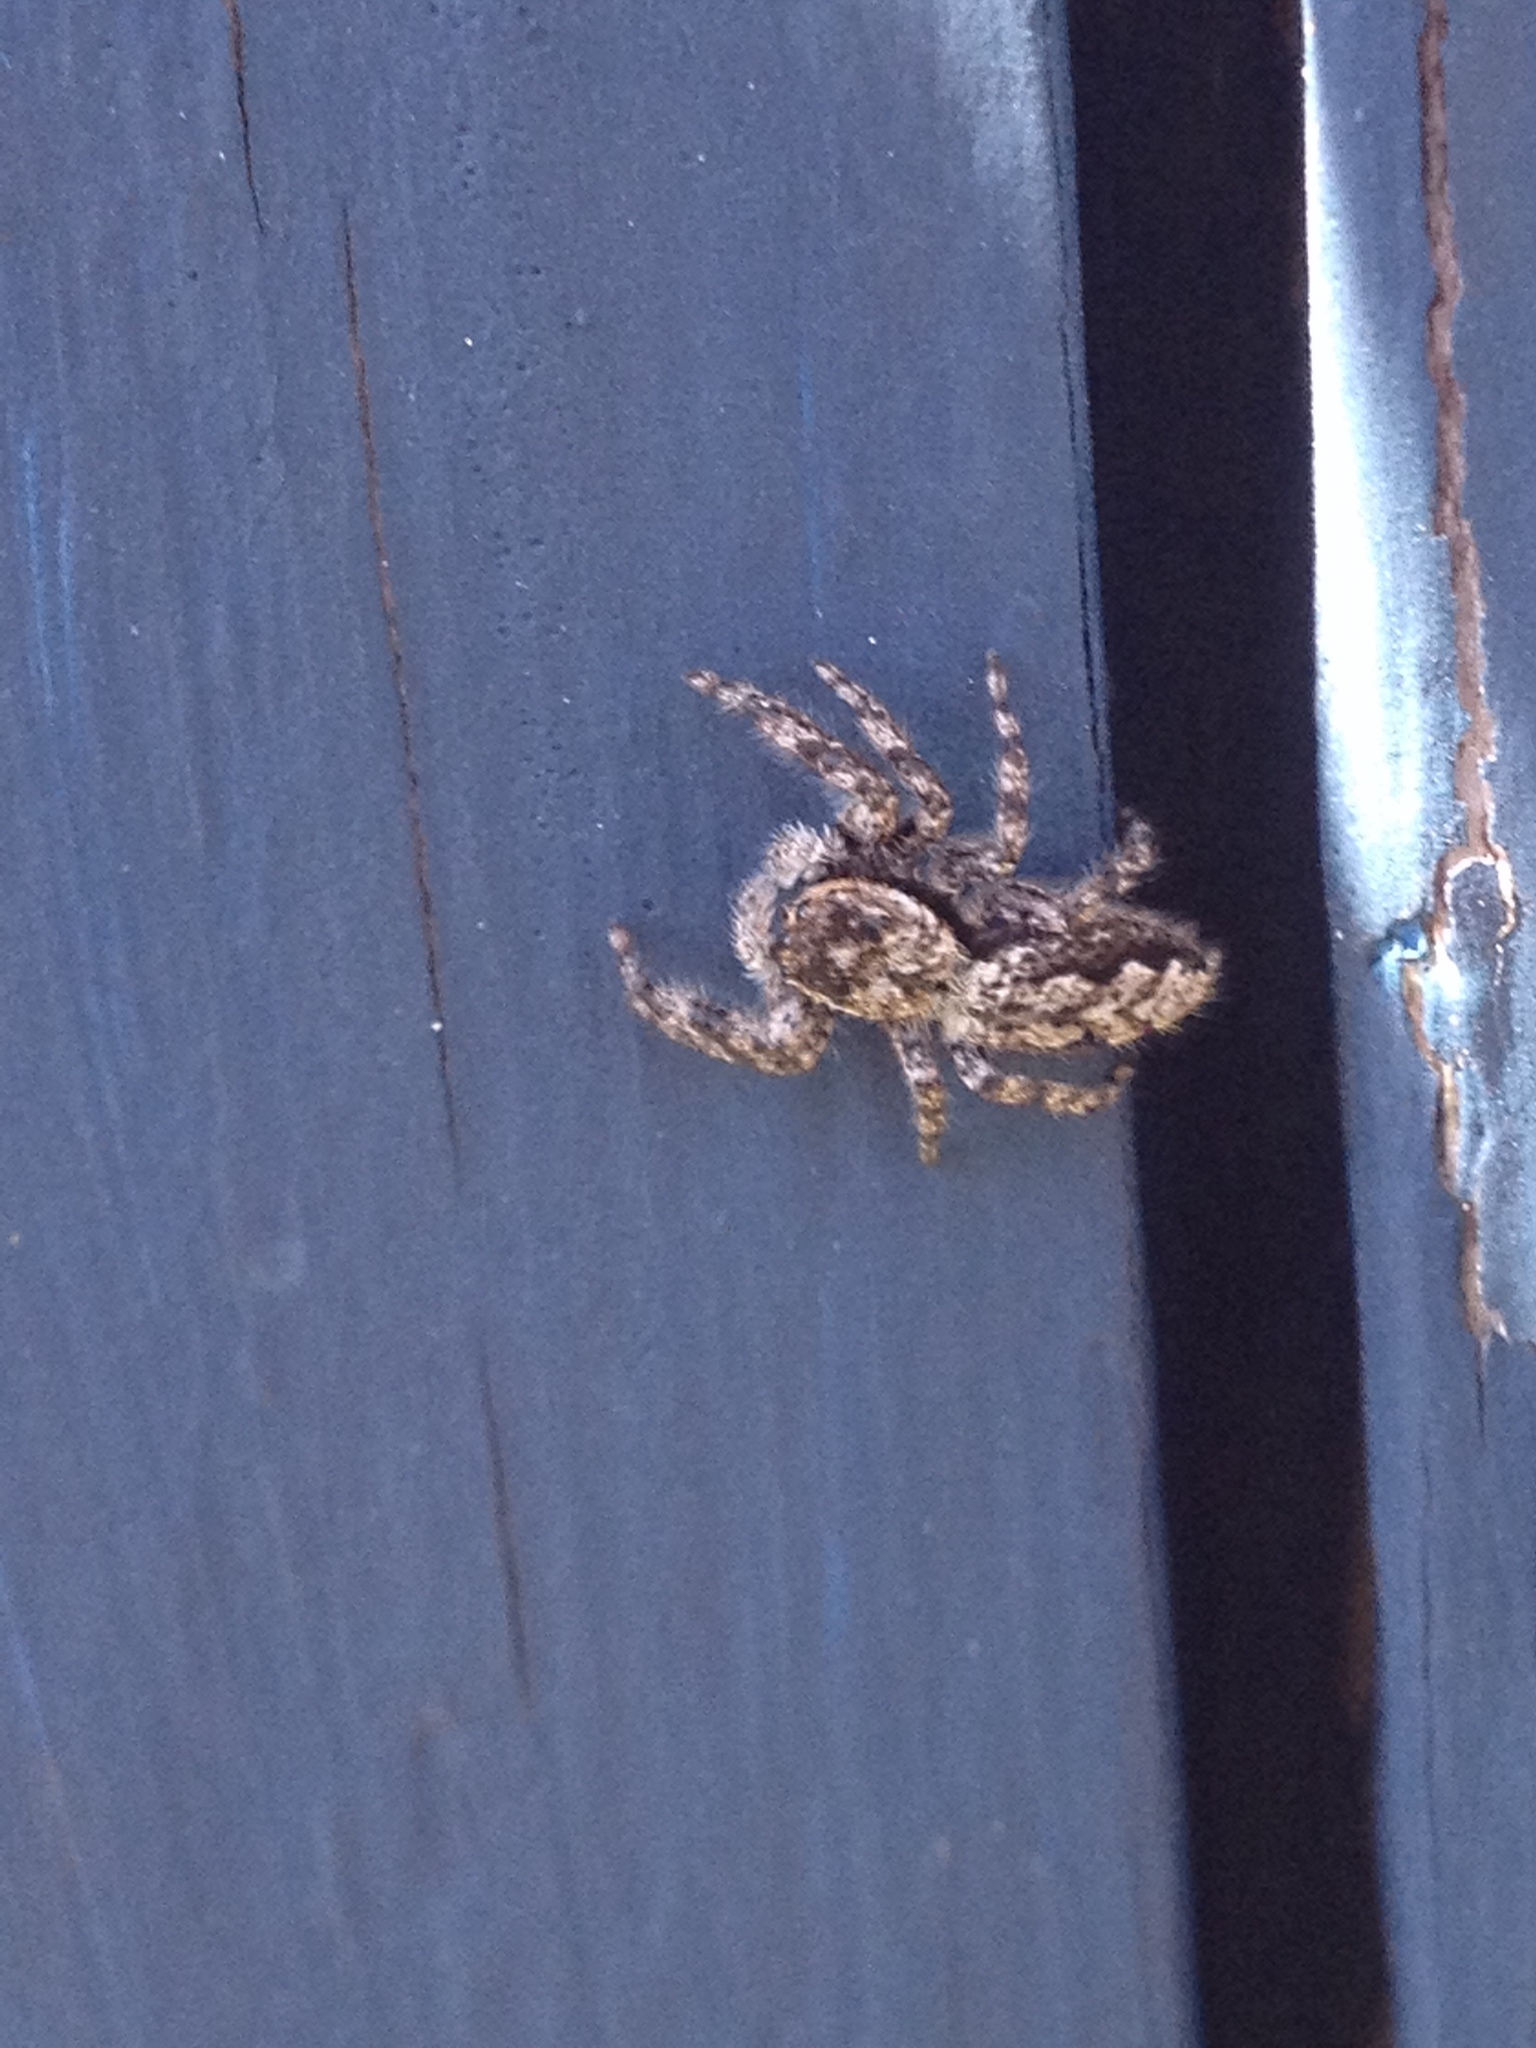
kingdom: Animalia
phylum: Arthropoda
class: Arachnida
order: Araneae
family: Salticidae
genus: Platycryptus
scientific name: Platycryptus undatus
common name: Tan jumping spider
